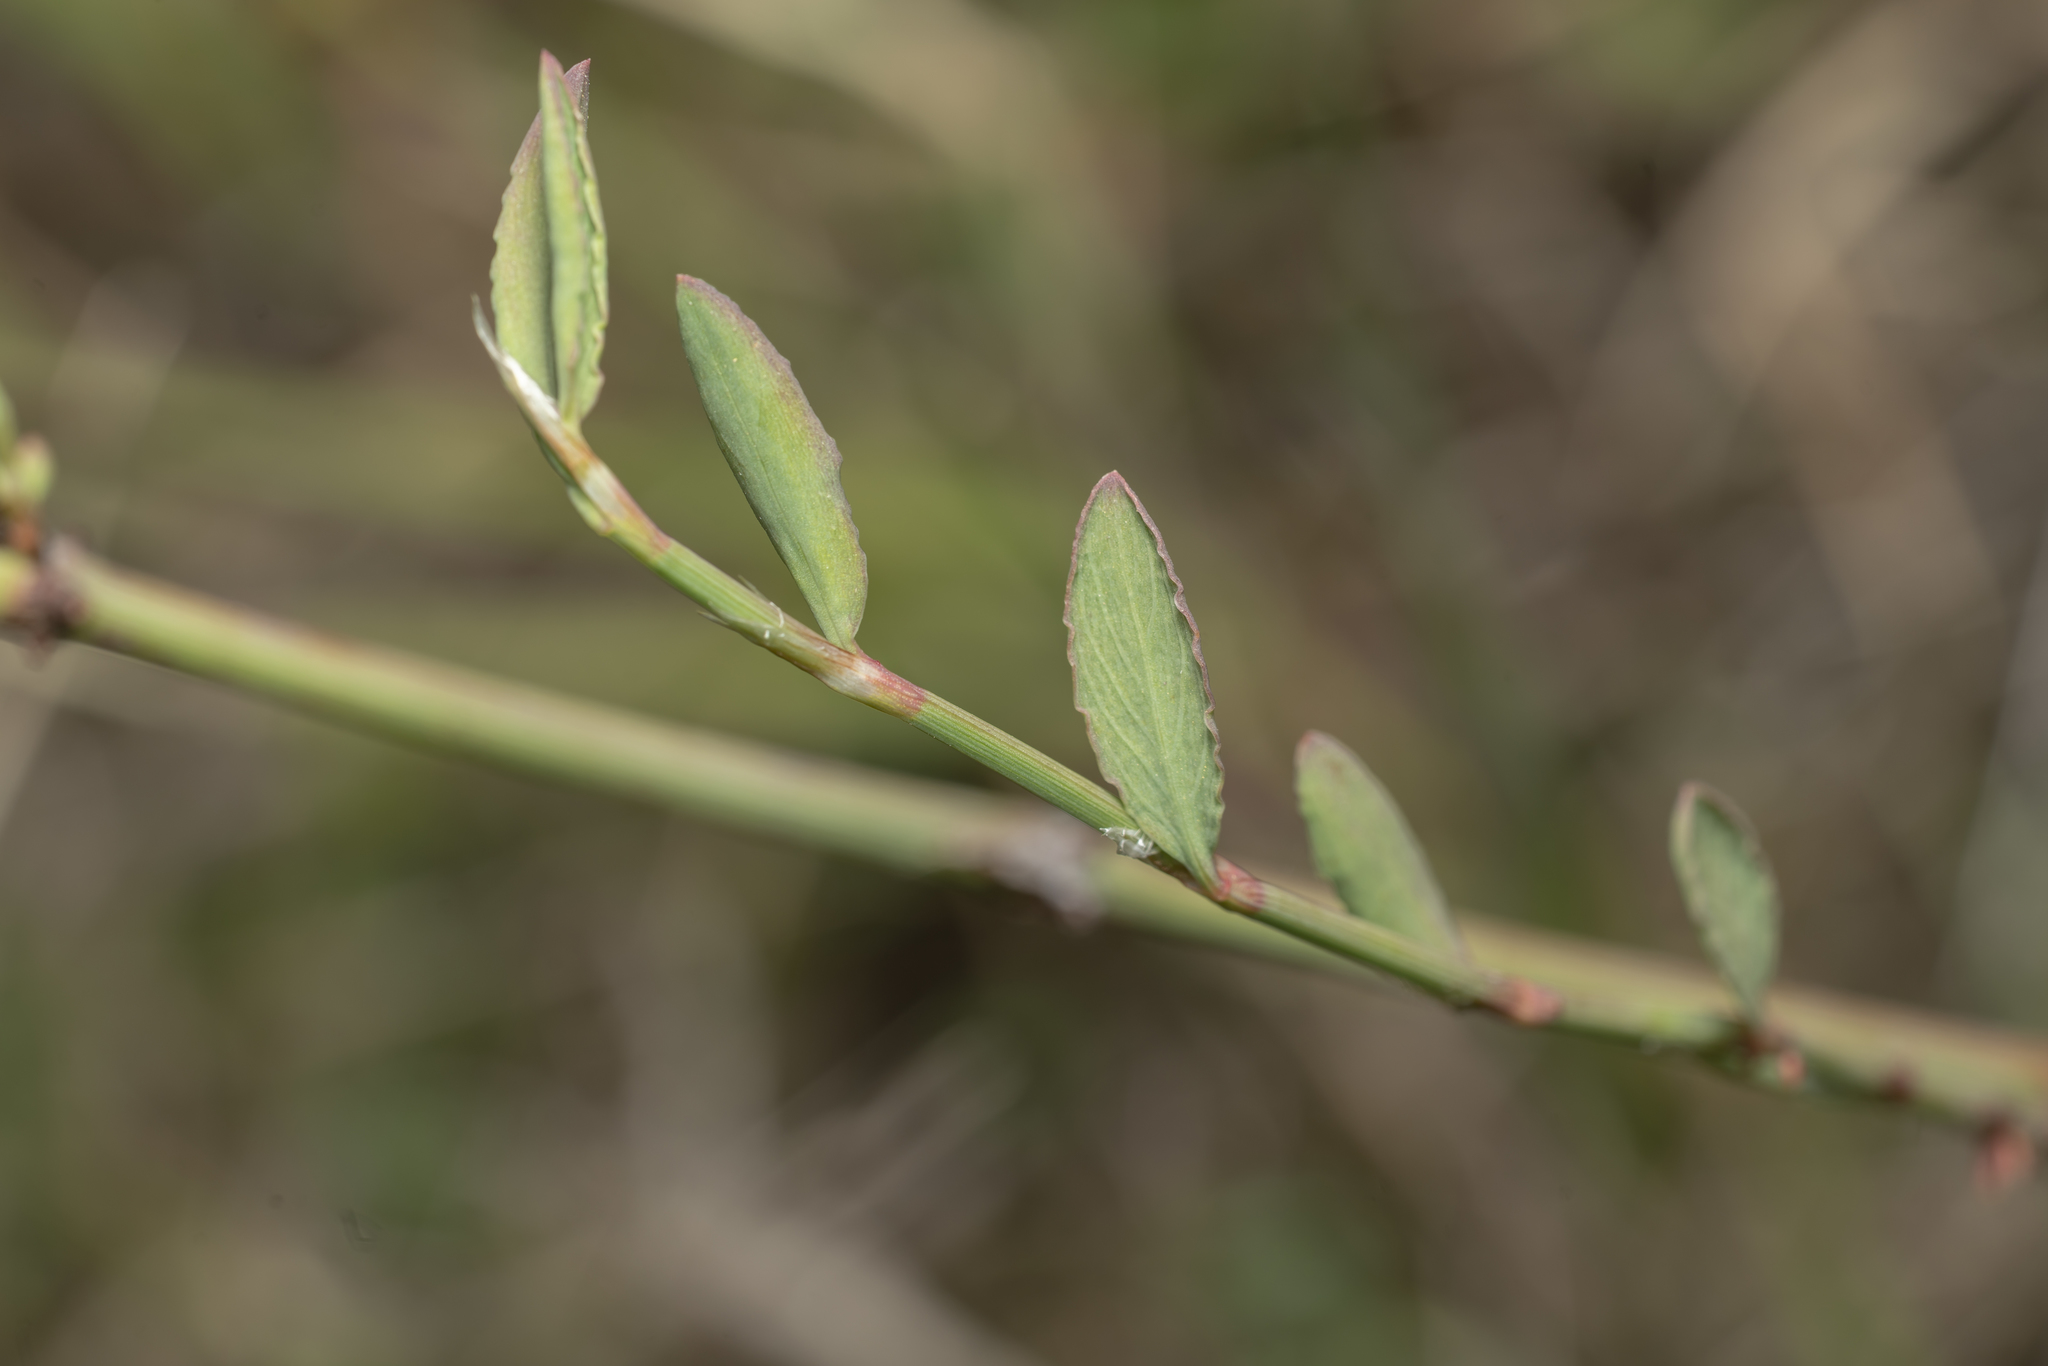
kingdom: Plantae
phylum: Tracheophyta
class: Magnoliopsida
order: Caryophyllales
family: Polygonaceae
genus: Polygonum
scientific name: Polygonum equisetiforme
